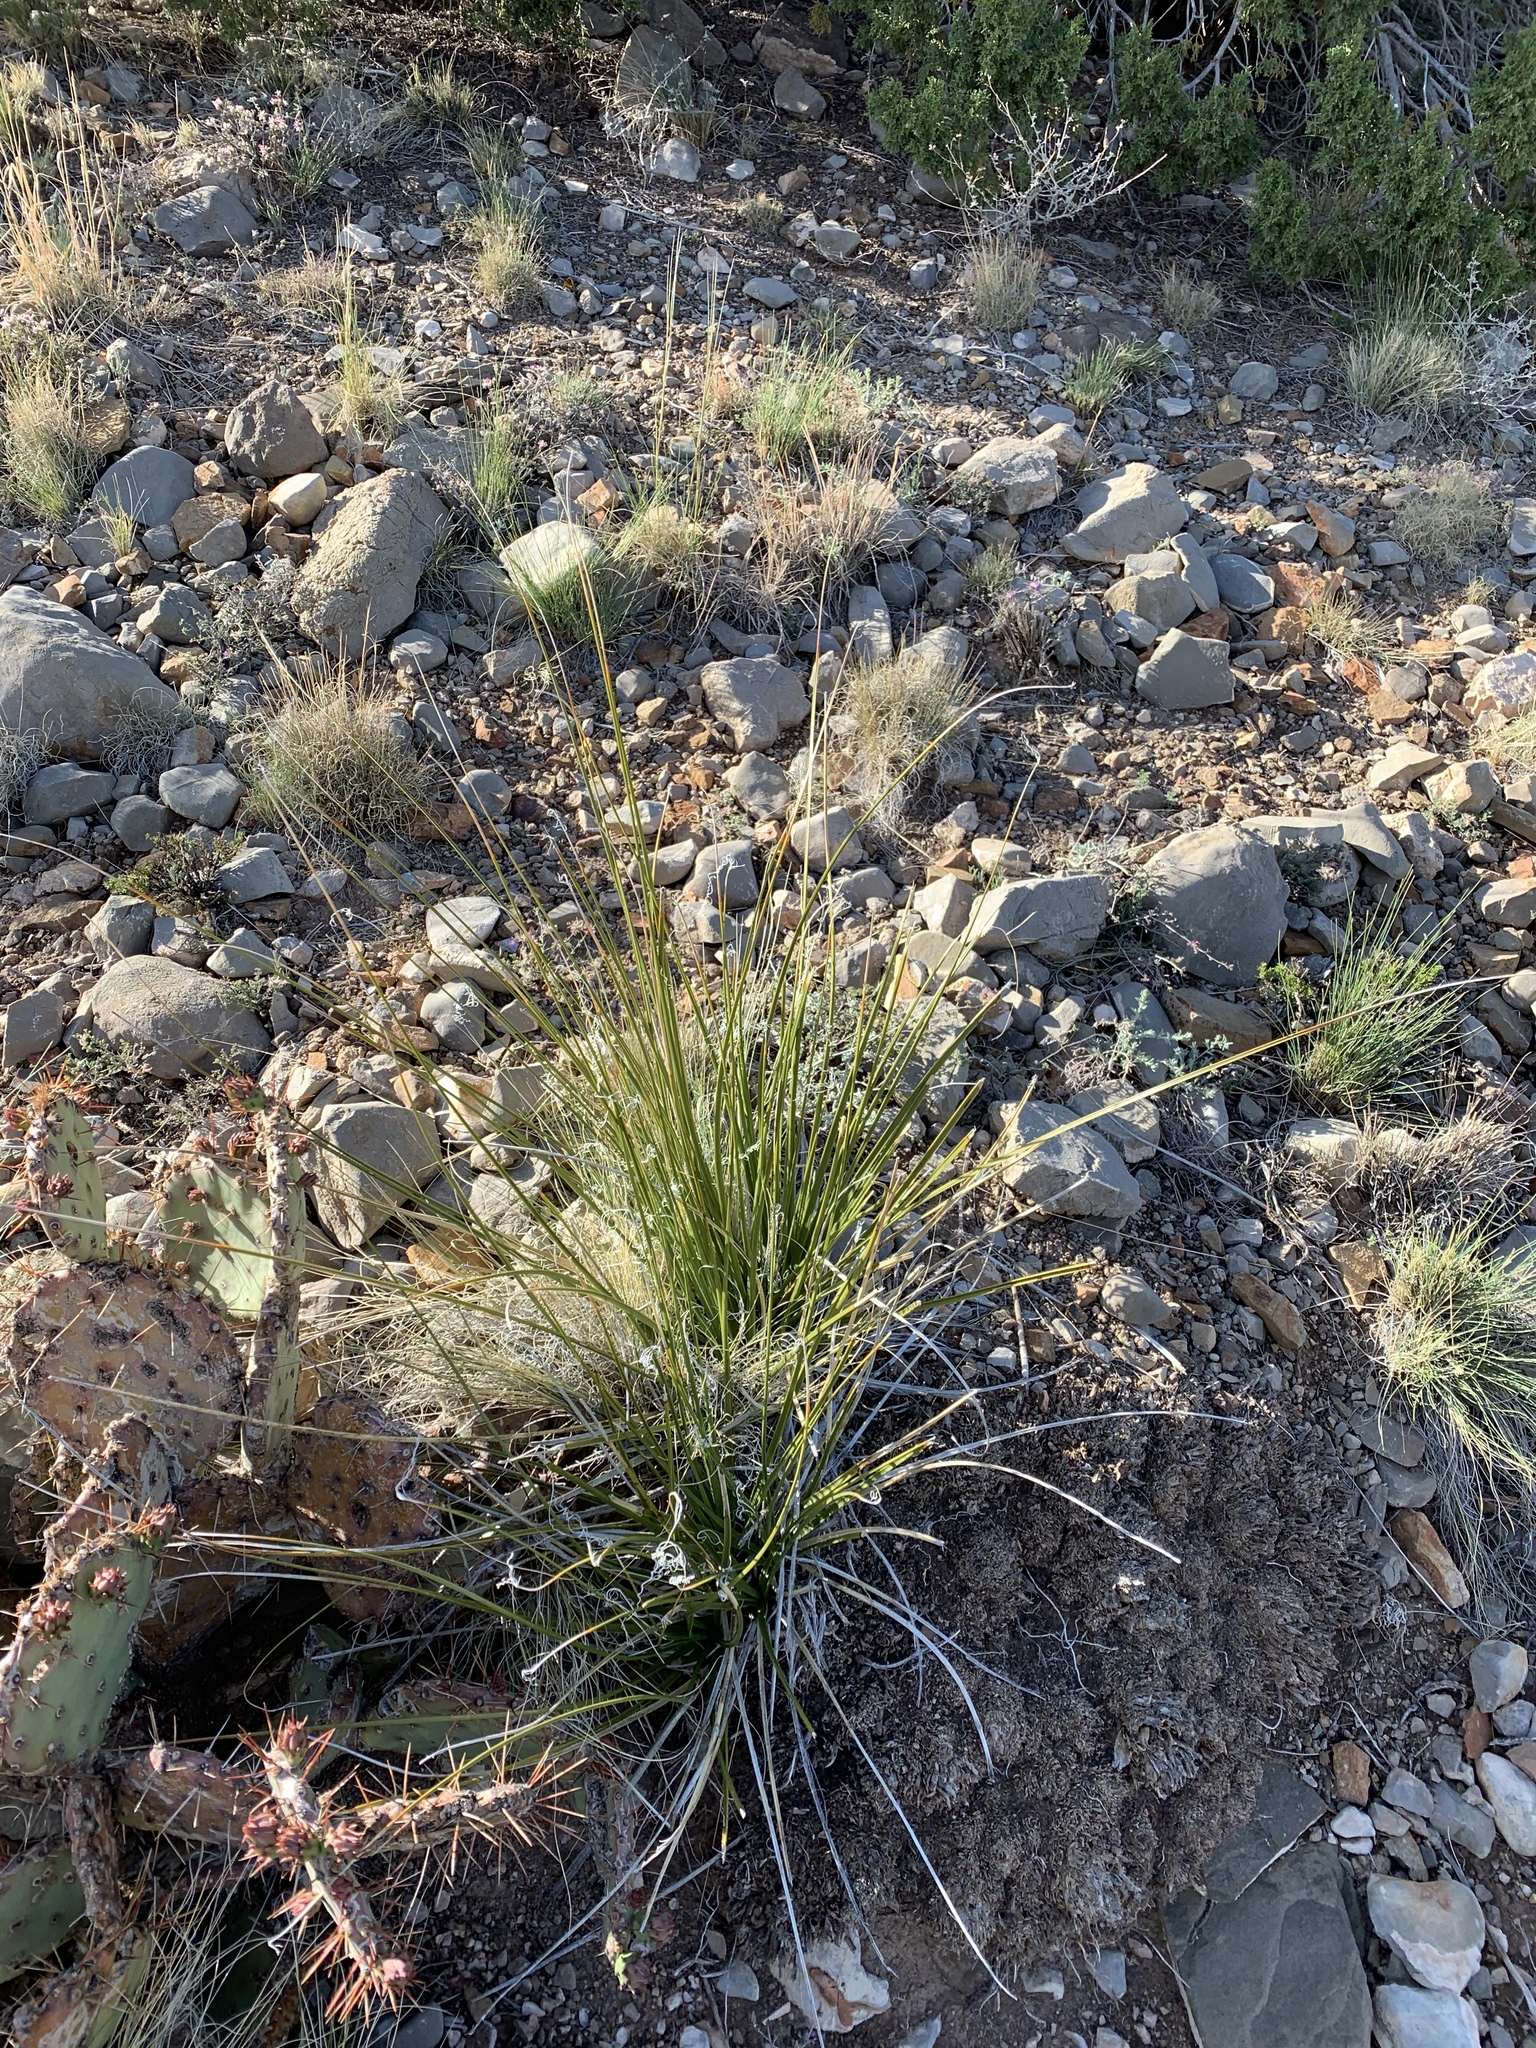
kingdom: Plantae
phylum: Tracheophyta
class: Liliopsida
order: Asparagales
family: Asparagaceae
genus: Nolina
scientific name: Nolina microcarpa
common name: Bear-grass
